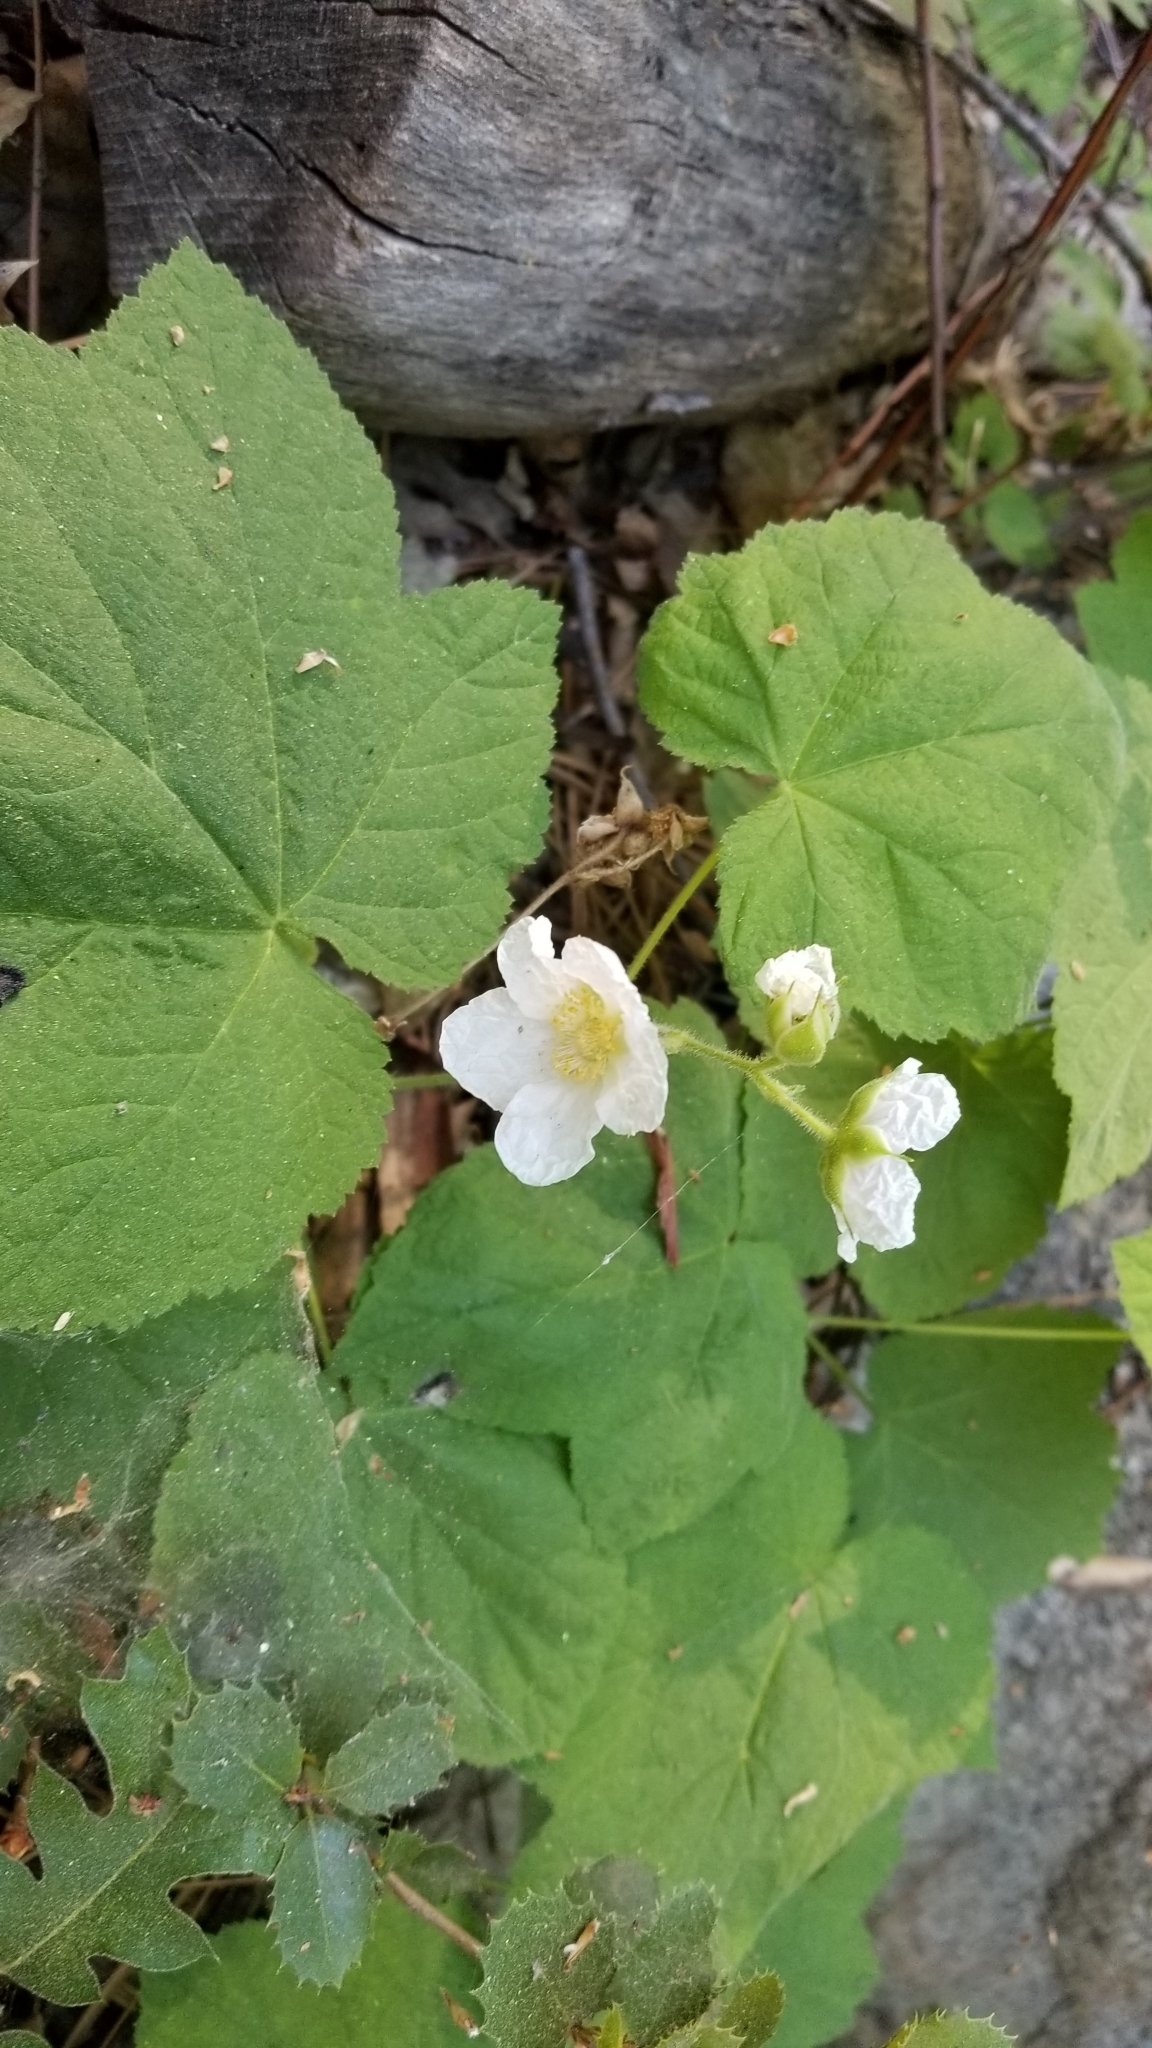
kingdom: Plantae
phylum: Tracheophyta
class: Magnoliopsida
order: Rosales
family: Rosaceae
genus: Rubus
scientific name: Rubus parviflorus
